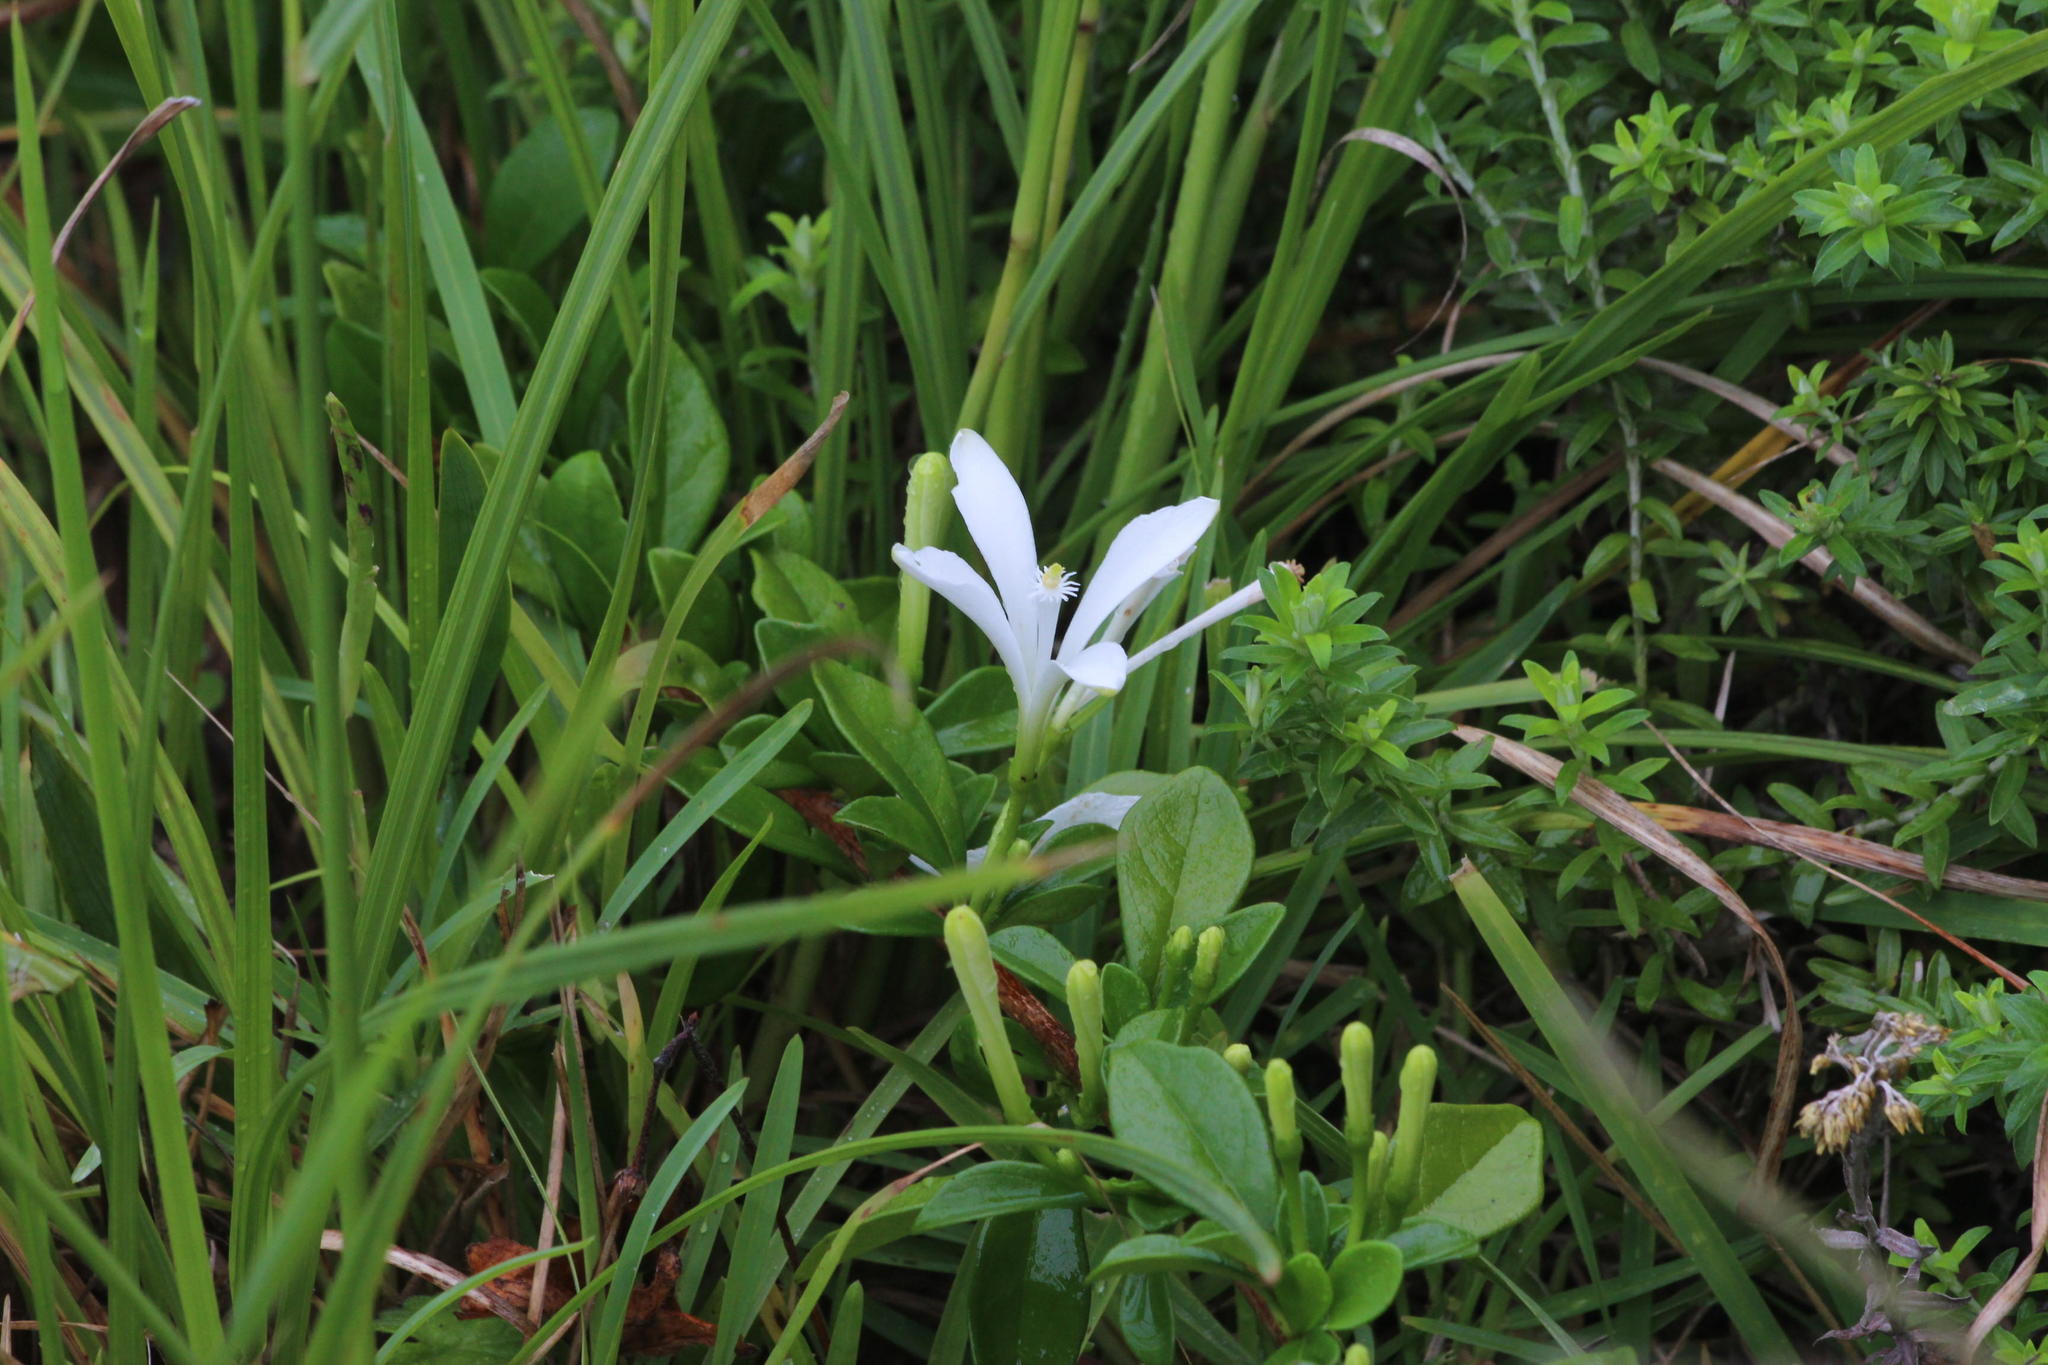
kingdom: Plantae
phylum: Tracheophyta
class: Magnoliopsida
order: Sapindales
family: Meliaceae
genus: Turraea
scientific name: Turraea obtusifolia
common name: Small honeysuckle tree
